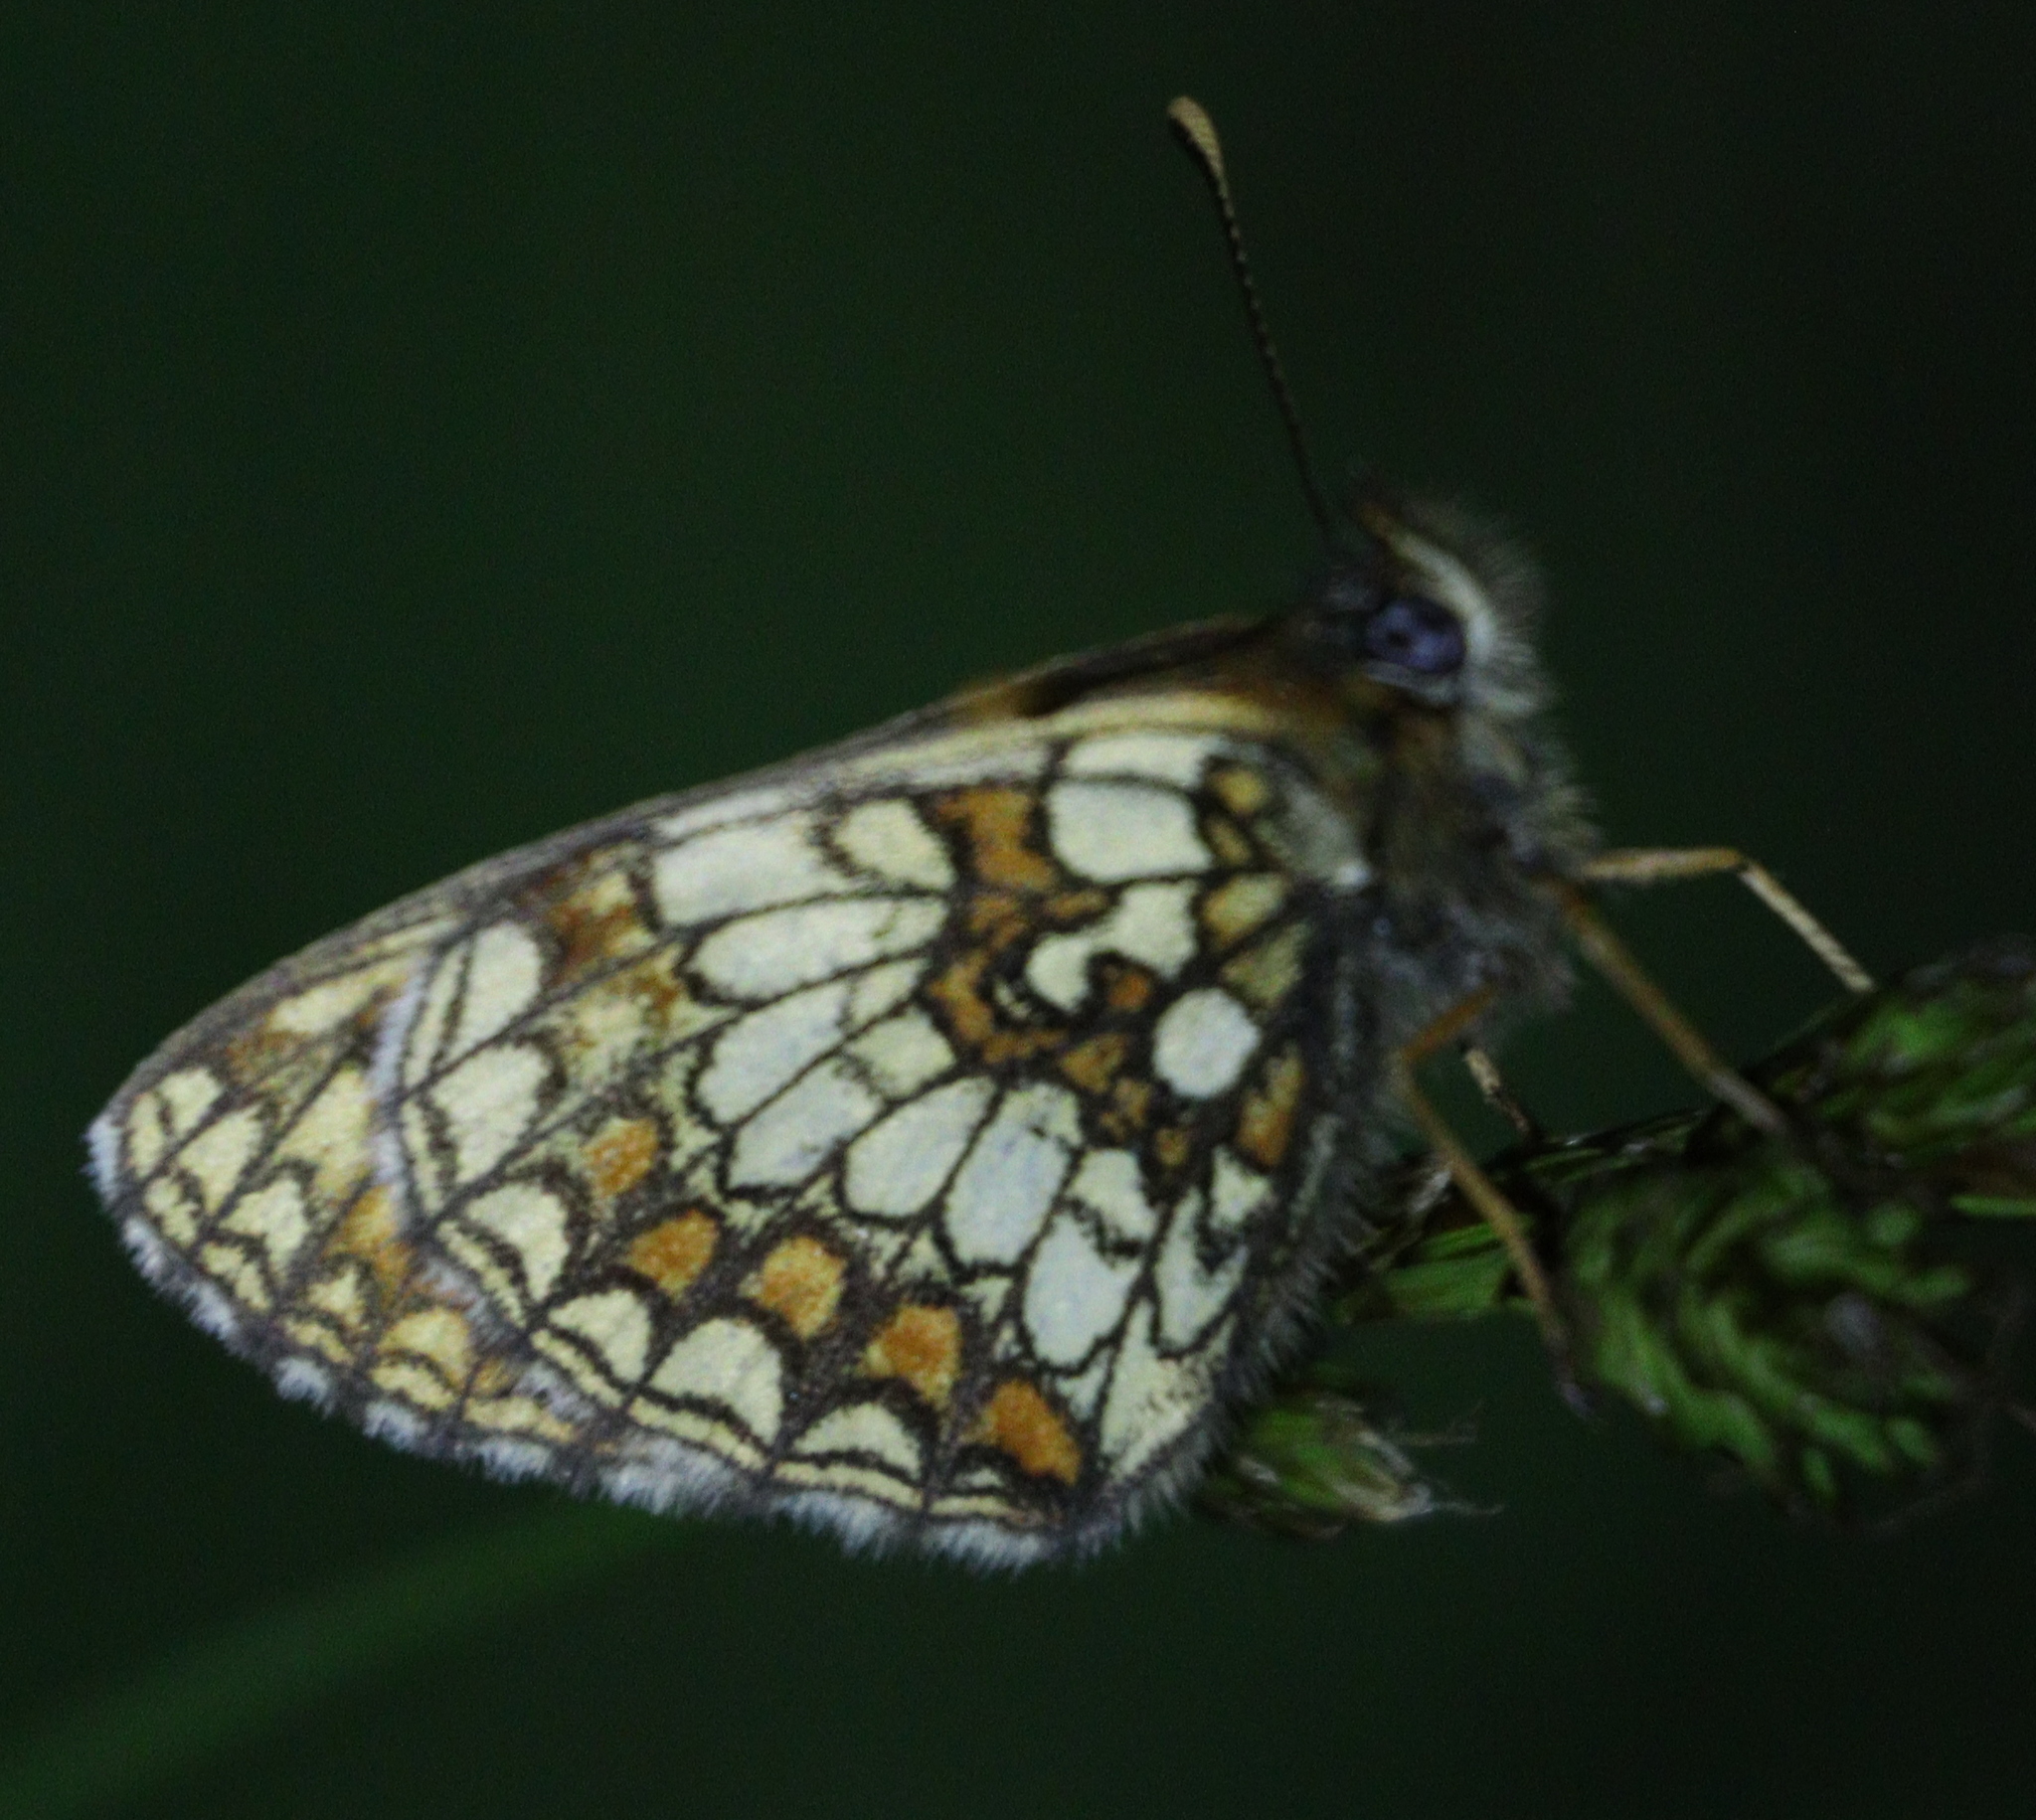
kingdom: Animalia
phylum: Arthropoda
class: Insecta
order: Lepidoptera
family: Nymphalidae
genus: Melitaea
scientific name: Melitaea athalia
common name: Heath fritillary
